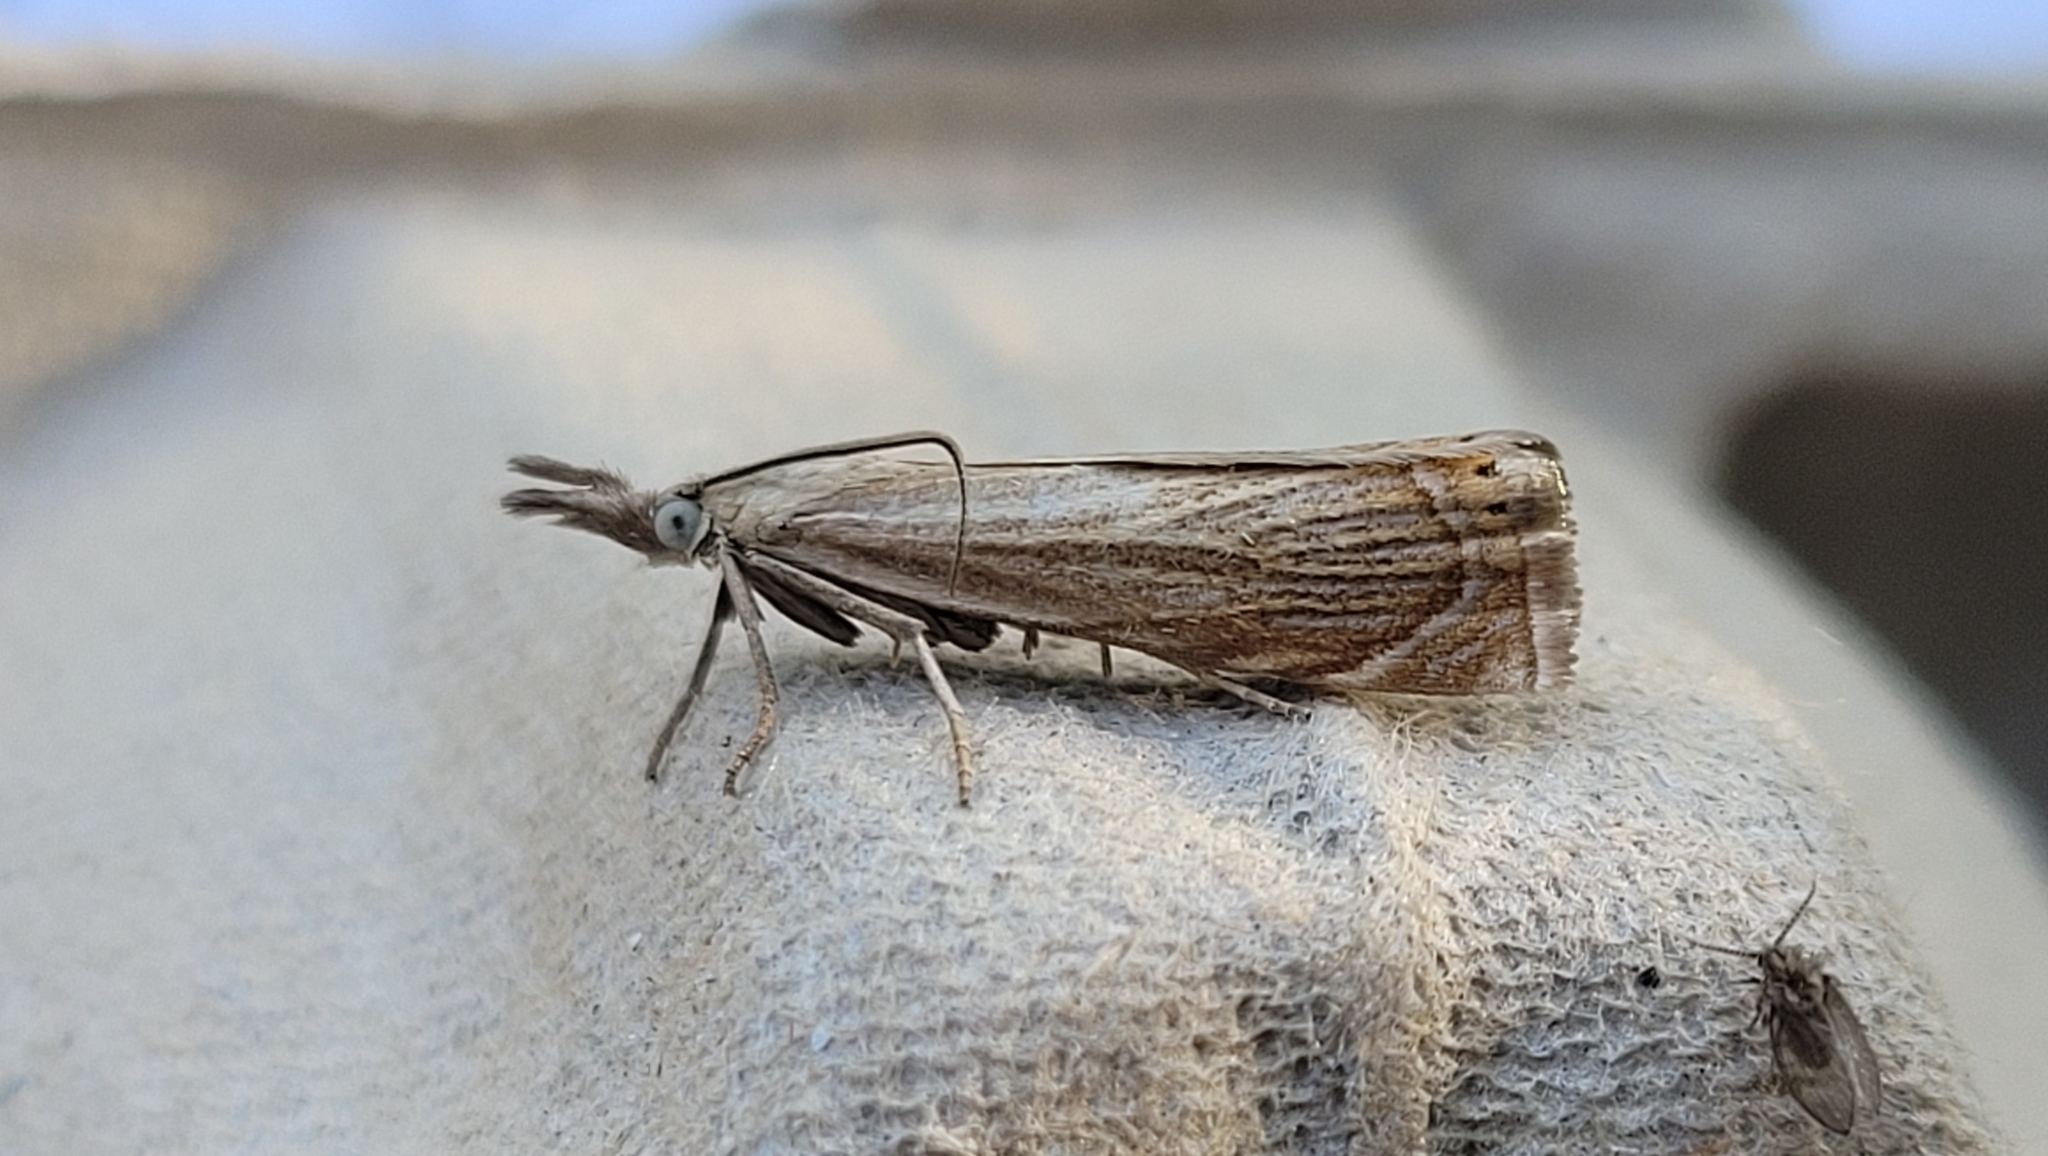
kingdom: Animalia
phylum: Arthropoda
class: Insecta
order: Lepidoptera
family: Crambidae
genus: Chrysoteuchia
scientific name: Chrysoteuchia culmella
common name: Garden grass-veneer
